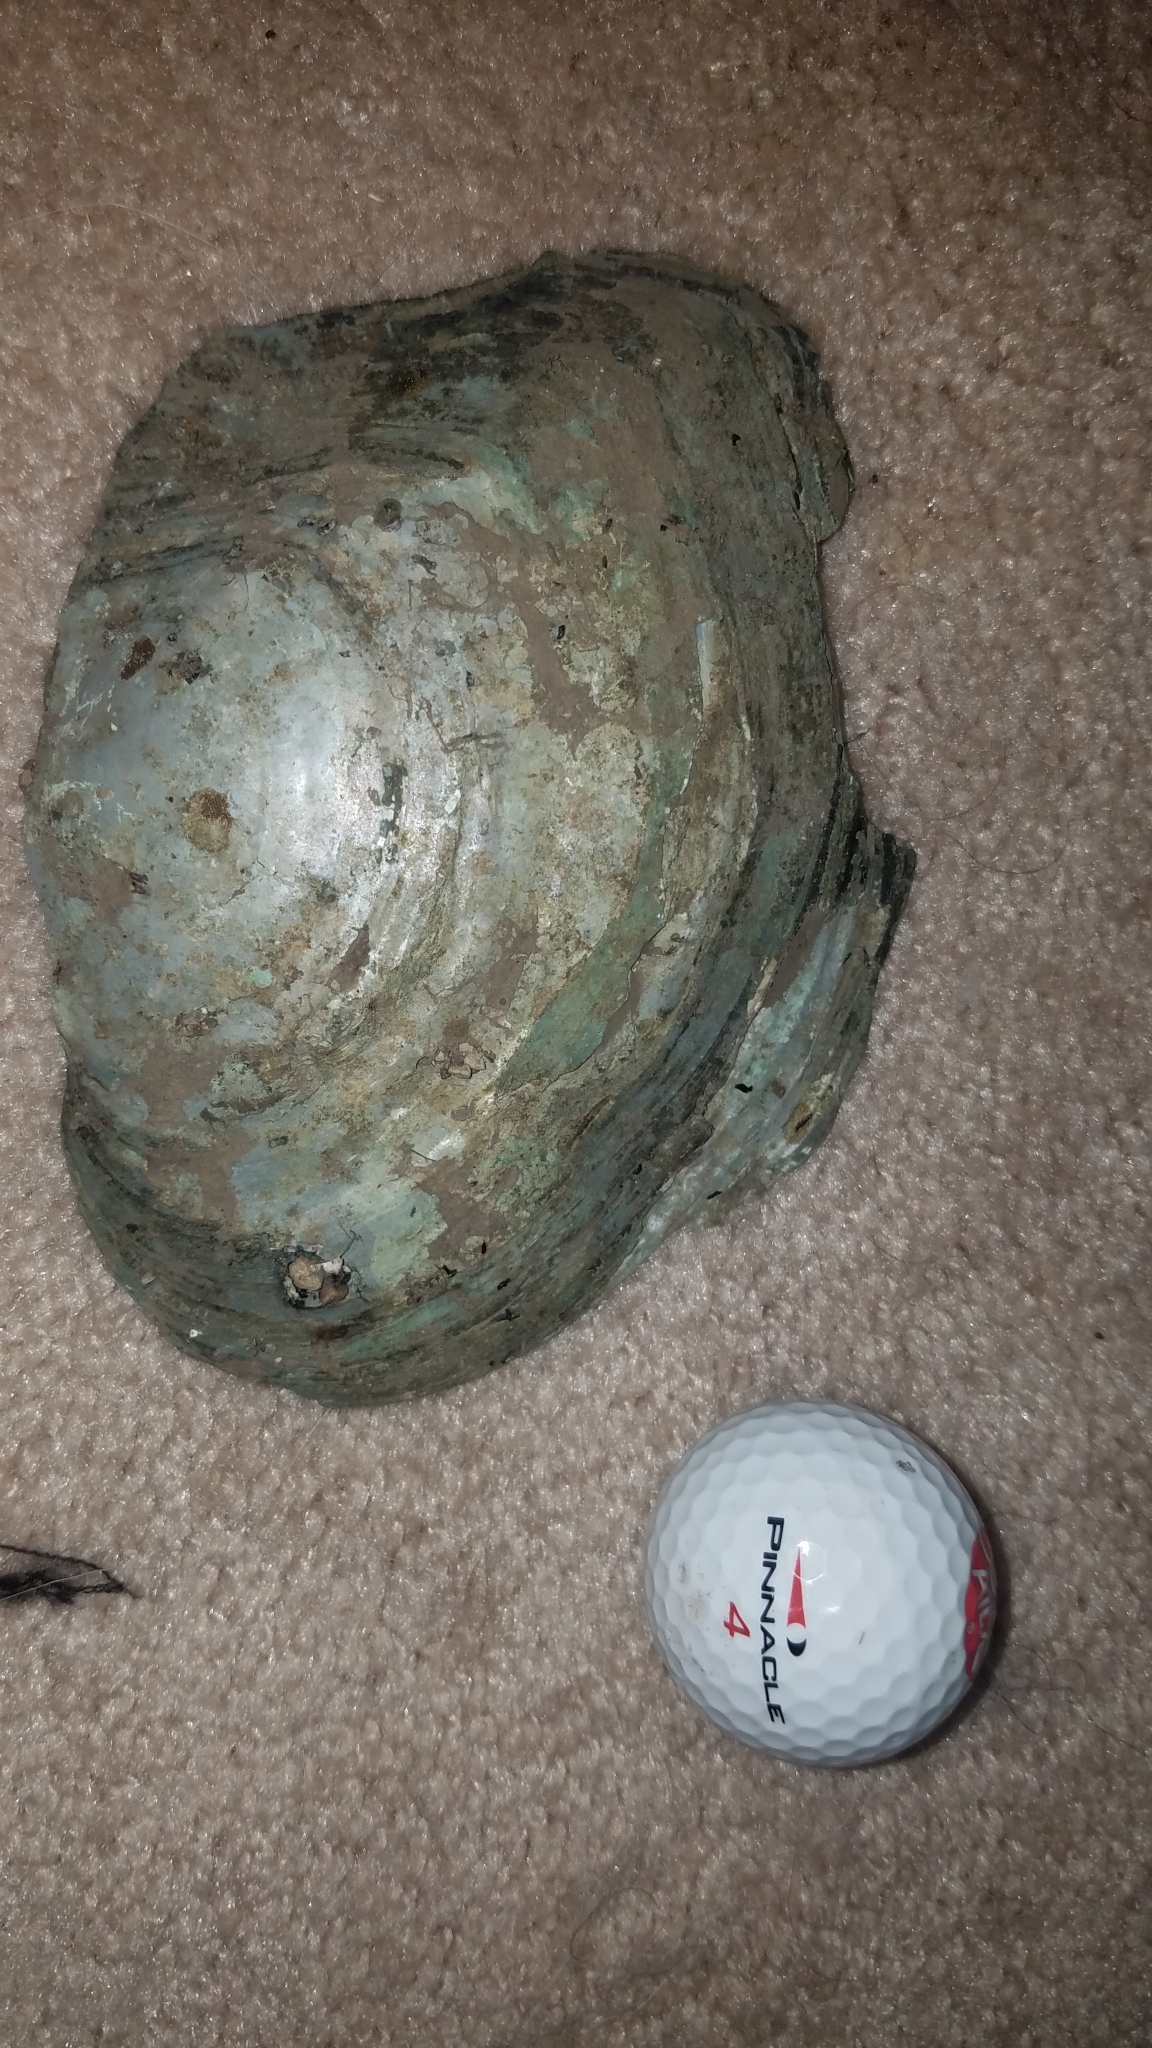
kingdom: Animalia
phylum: Mollusca
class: Bivalvia
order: Unionida
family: Unionidae
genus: Lasmigona
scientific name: Lasmigona complanata
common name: White heelsplitter
